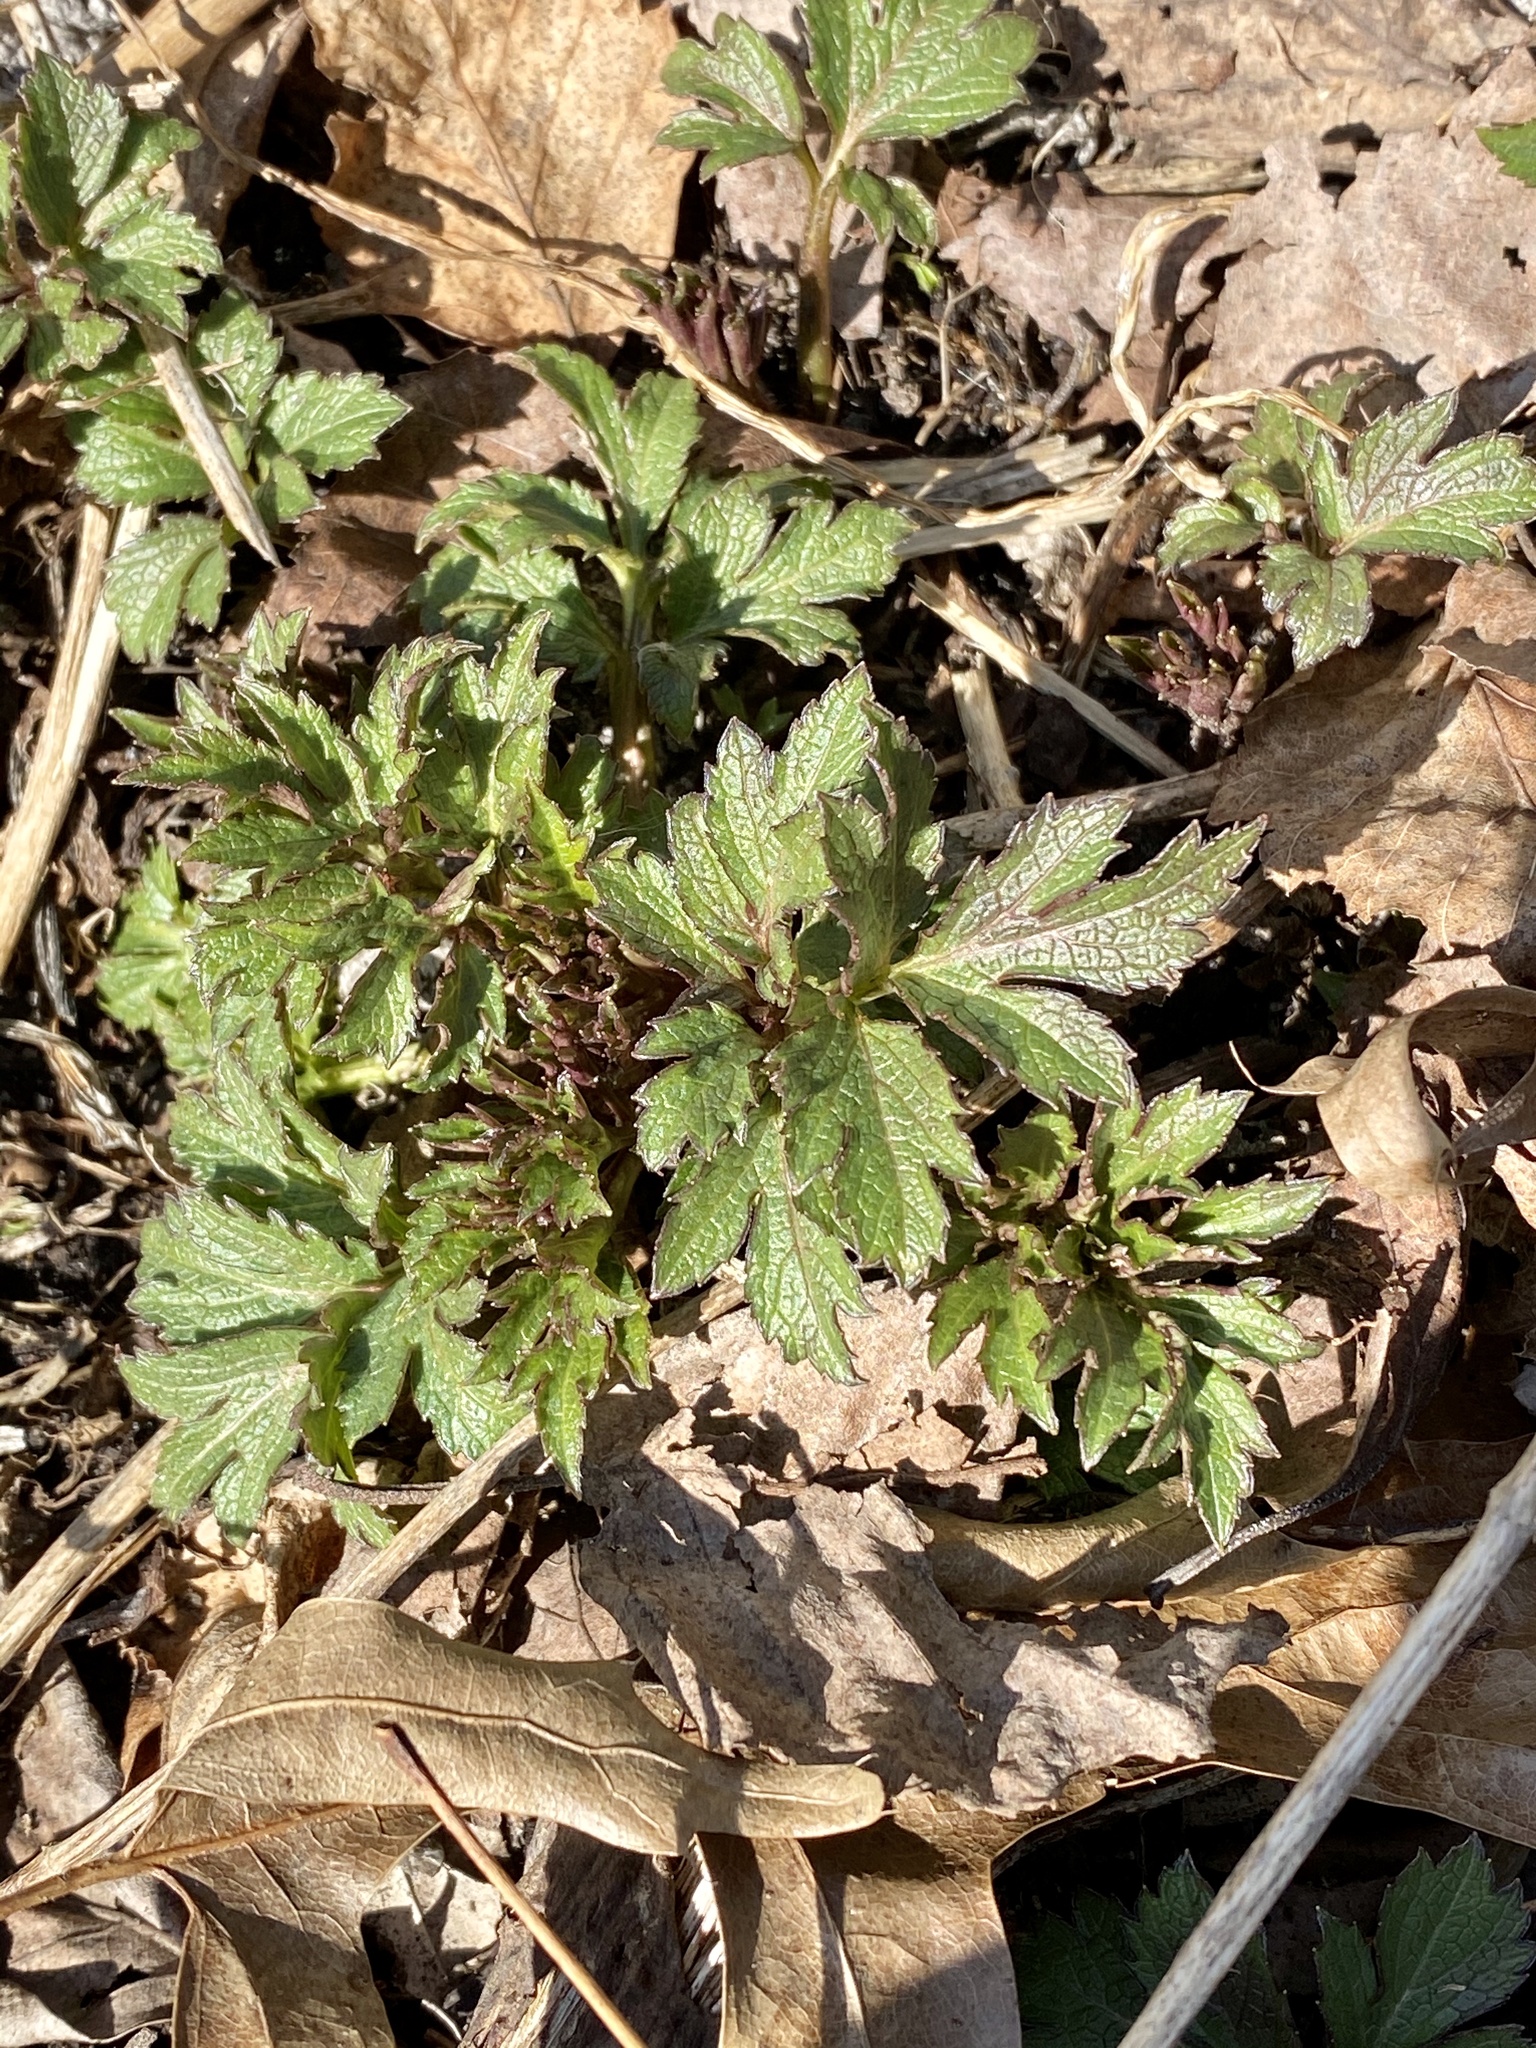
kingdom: Plantae
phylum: Tracheophyta
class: Magnoliopsida
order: Asterales
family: Asteraceae
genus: Rudbeckia
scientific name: Rudbeckia laciniata
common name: Coneflower
